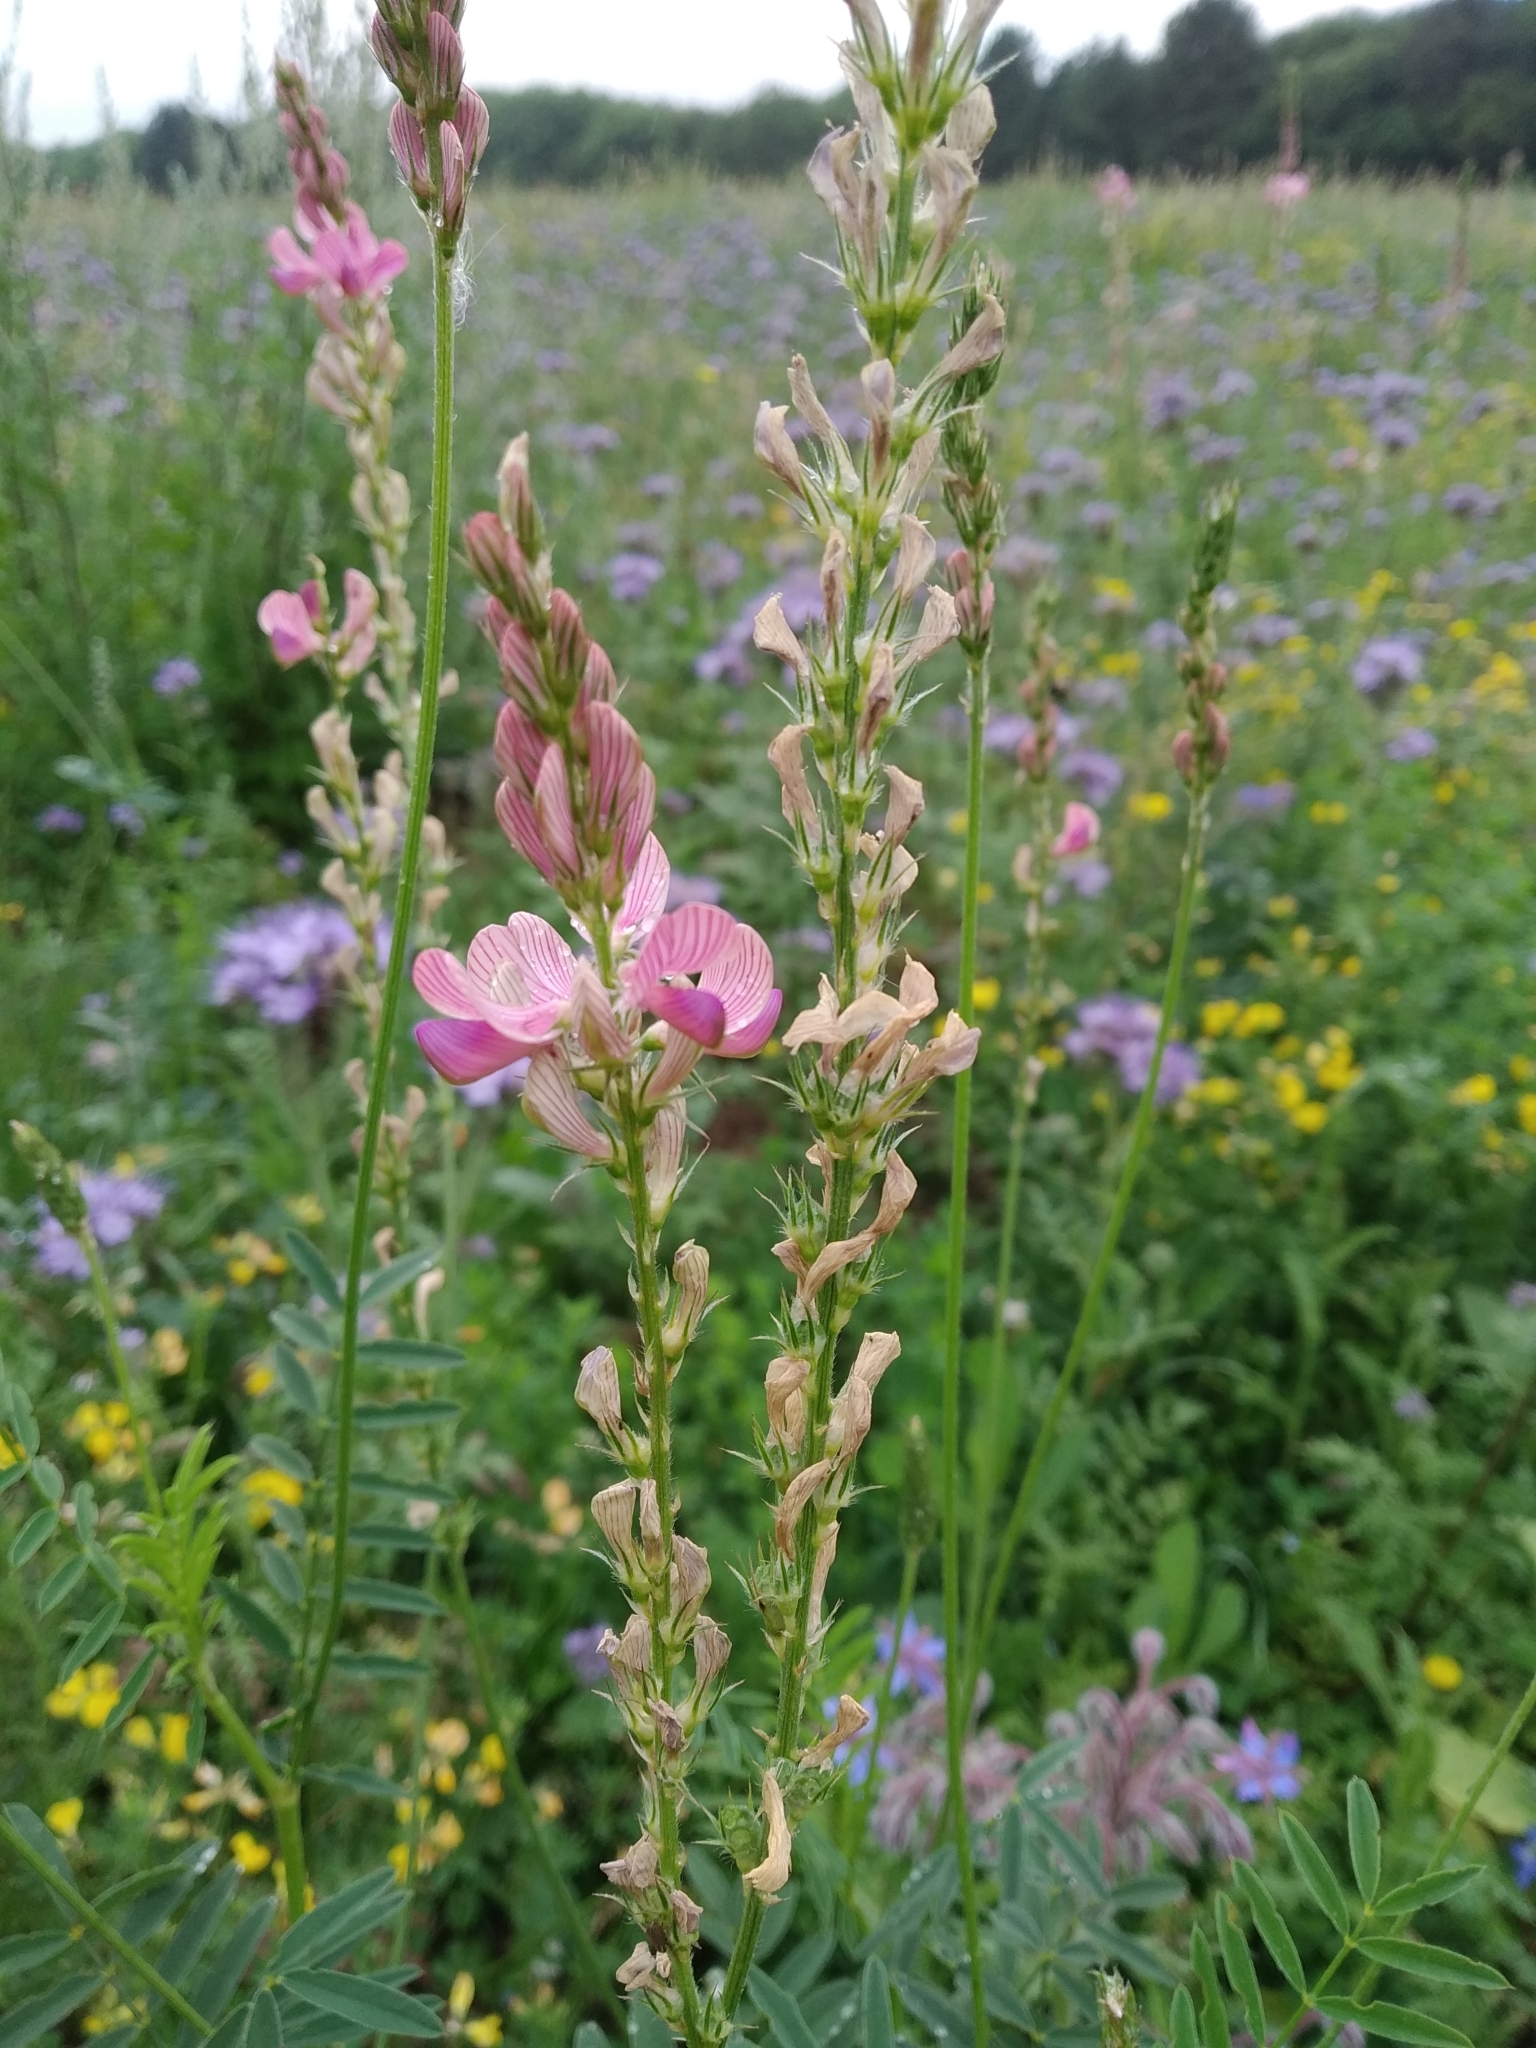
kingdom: Plantae
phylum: Tracheophyta
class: Magnoliopsida
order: Fabales
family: Fabaceae
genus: Onobrychis
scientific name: Onobrychis viciifolia
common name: Sainfoin
